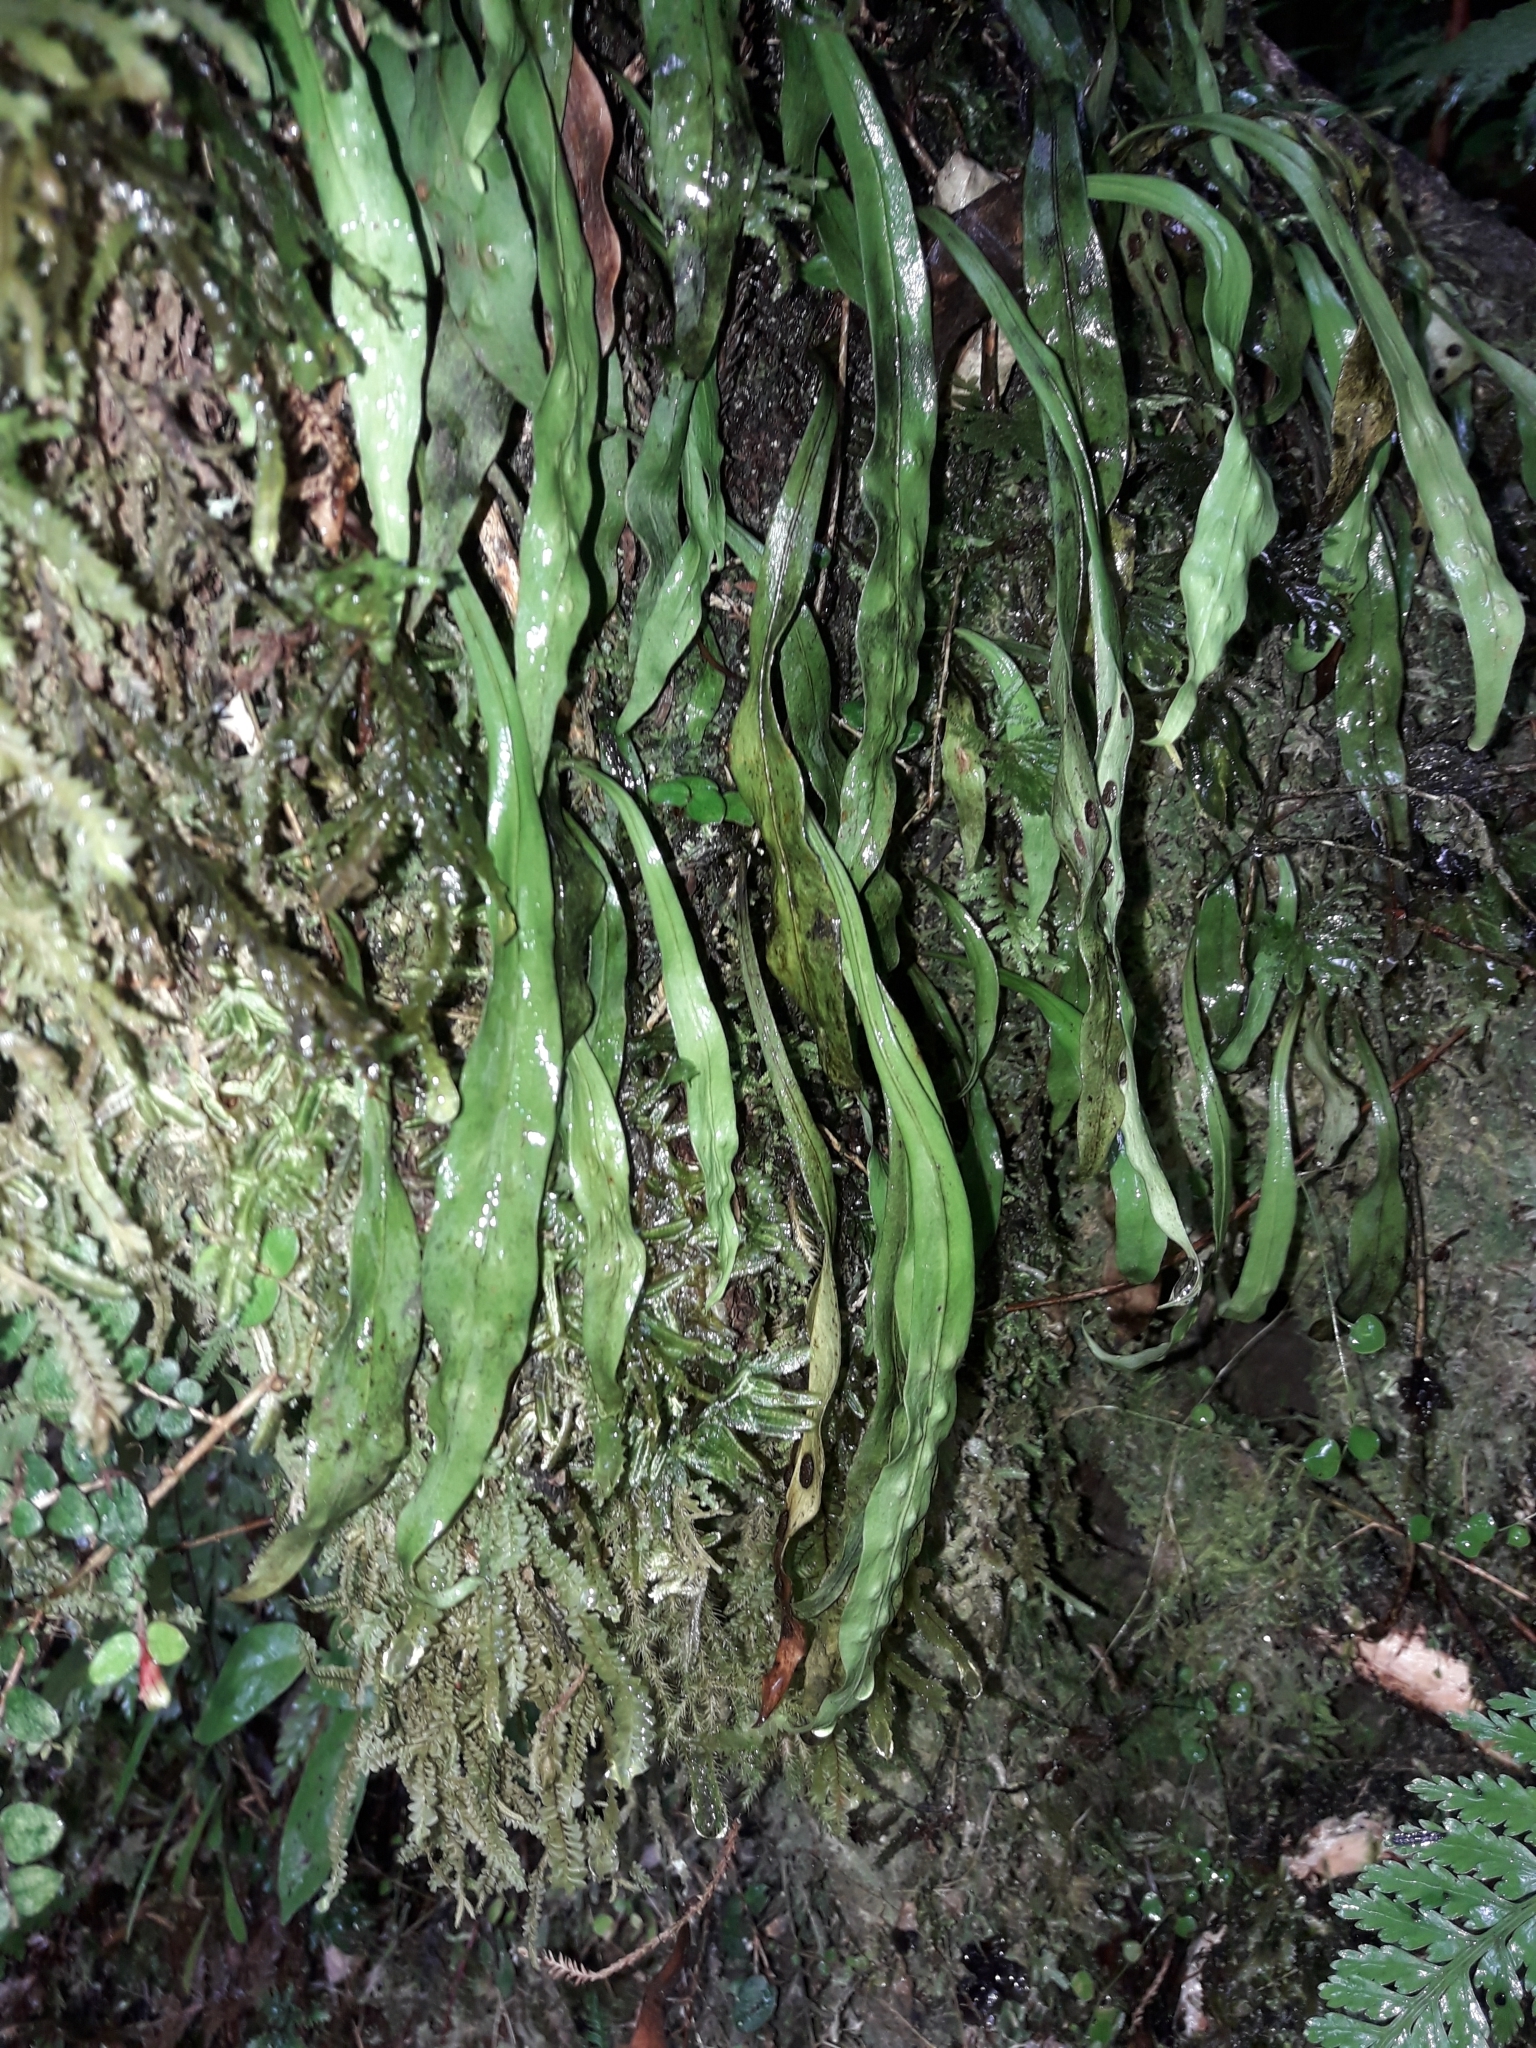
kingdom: Plantae
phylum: Tracheophyta
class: Polypodiopsida
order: Polypodiales
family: Polypodiaceae
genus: Loxogramme
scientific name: Loxogramme dictyopteris
